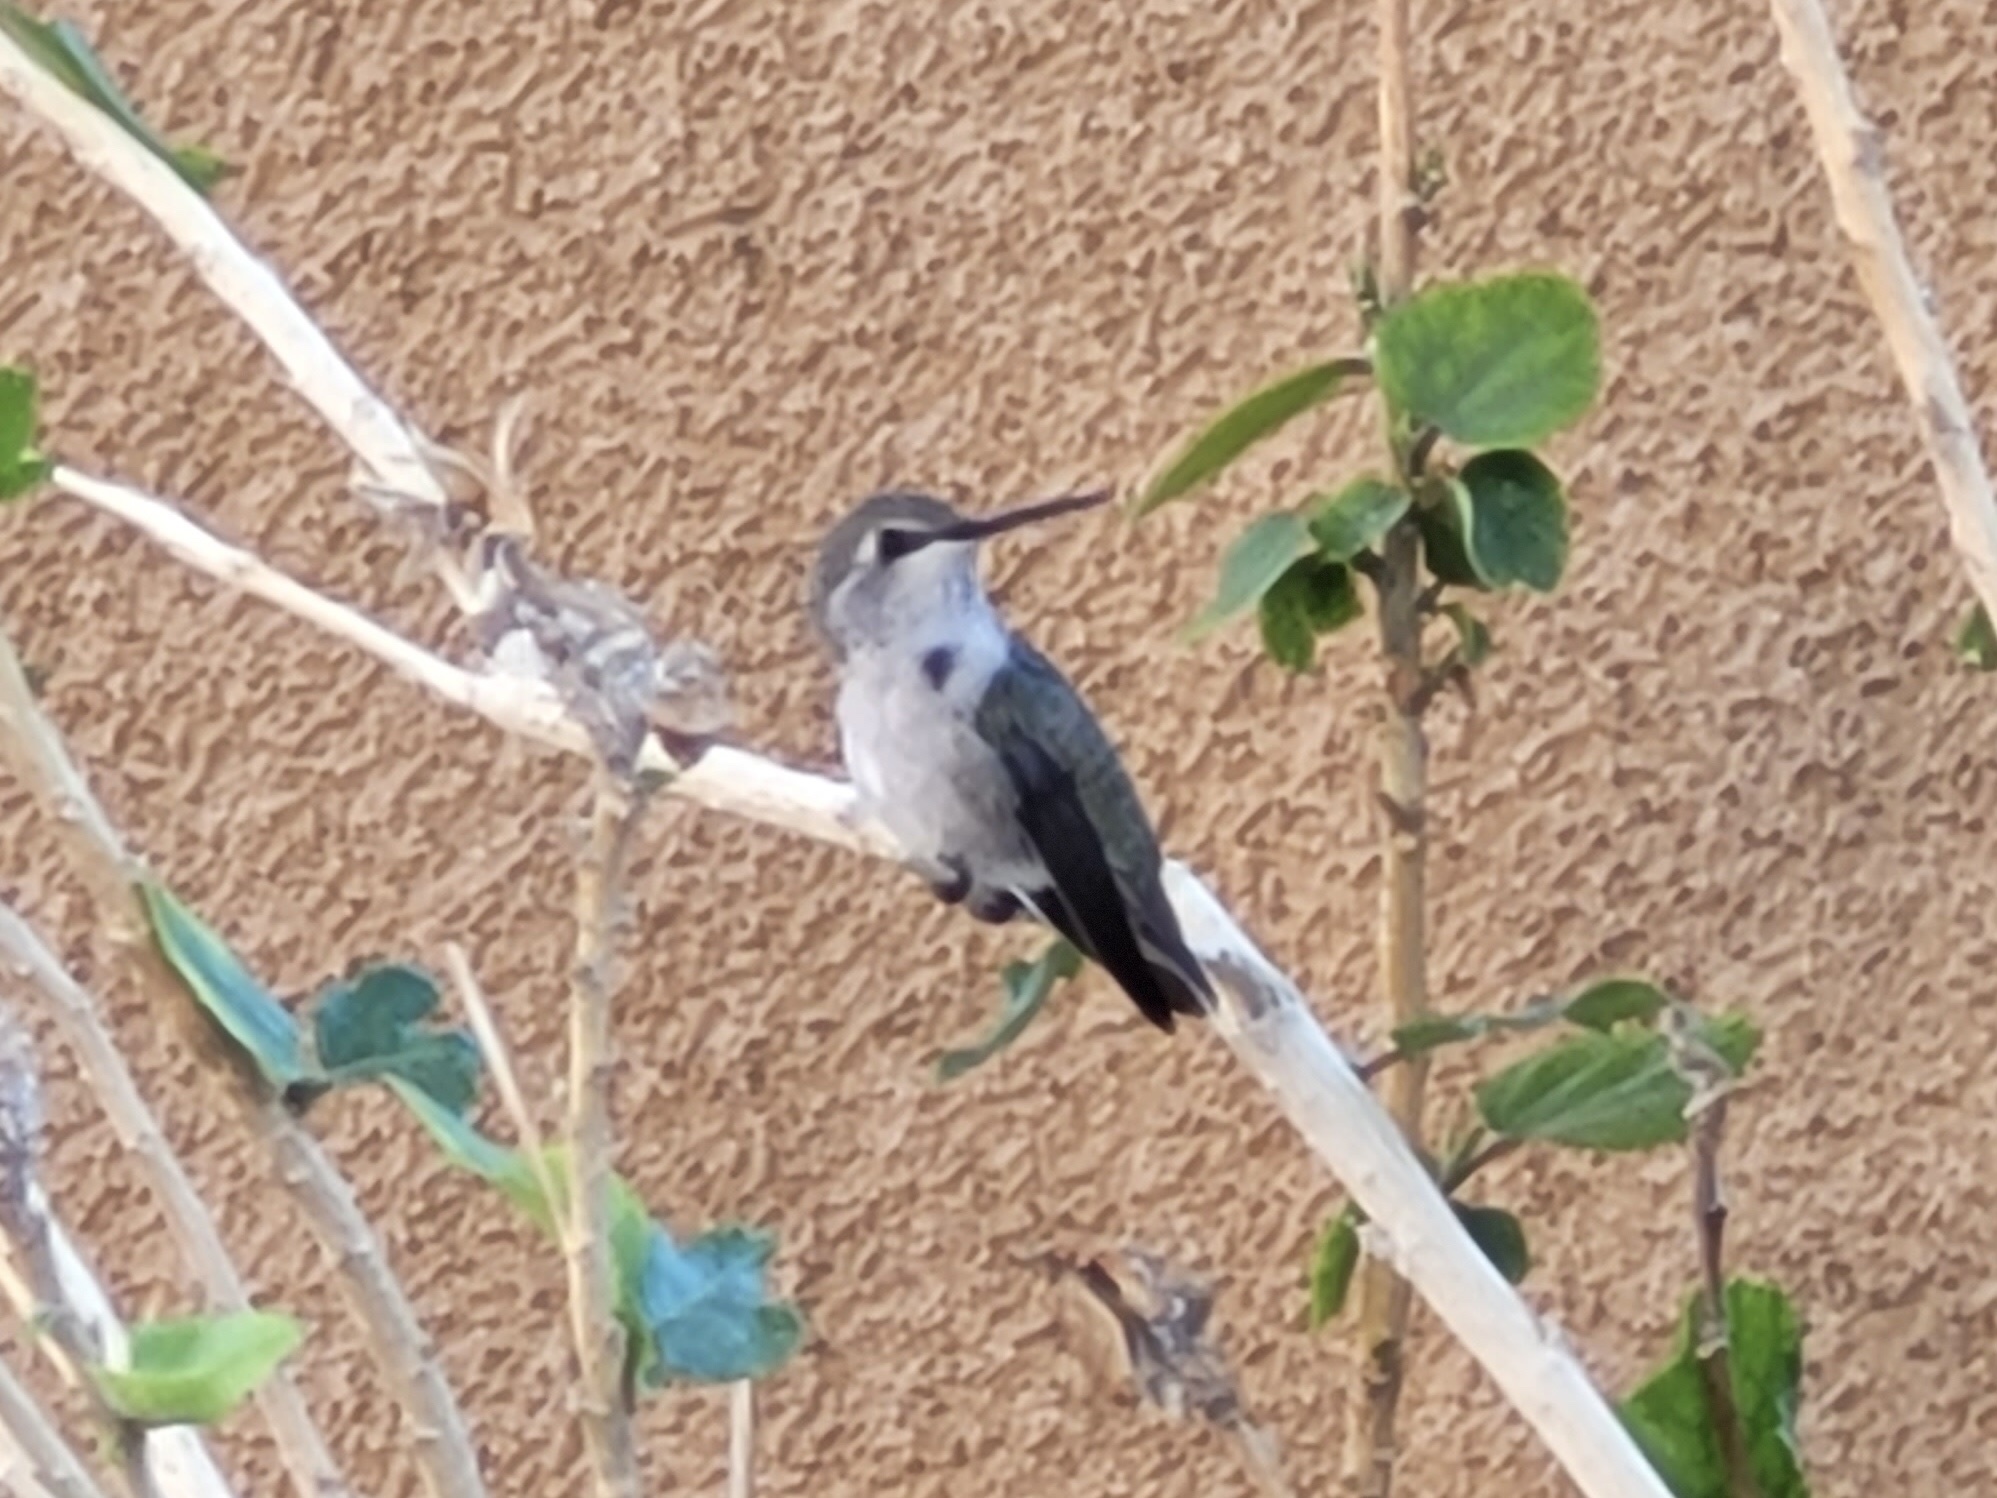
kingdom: Animalia
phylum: Chordata
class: Aves
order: Apodiformes
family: Trochilidae
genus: Calypte
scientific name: Calypte costae
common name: Costa's hummingbird
